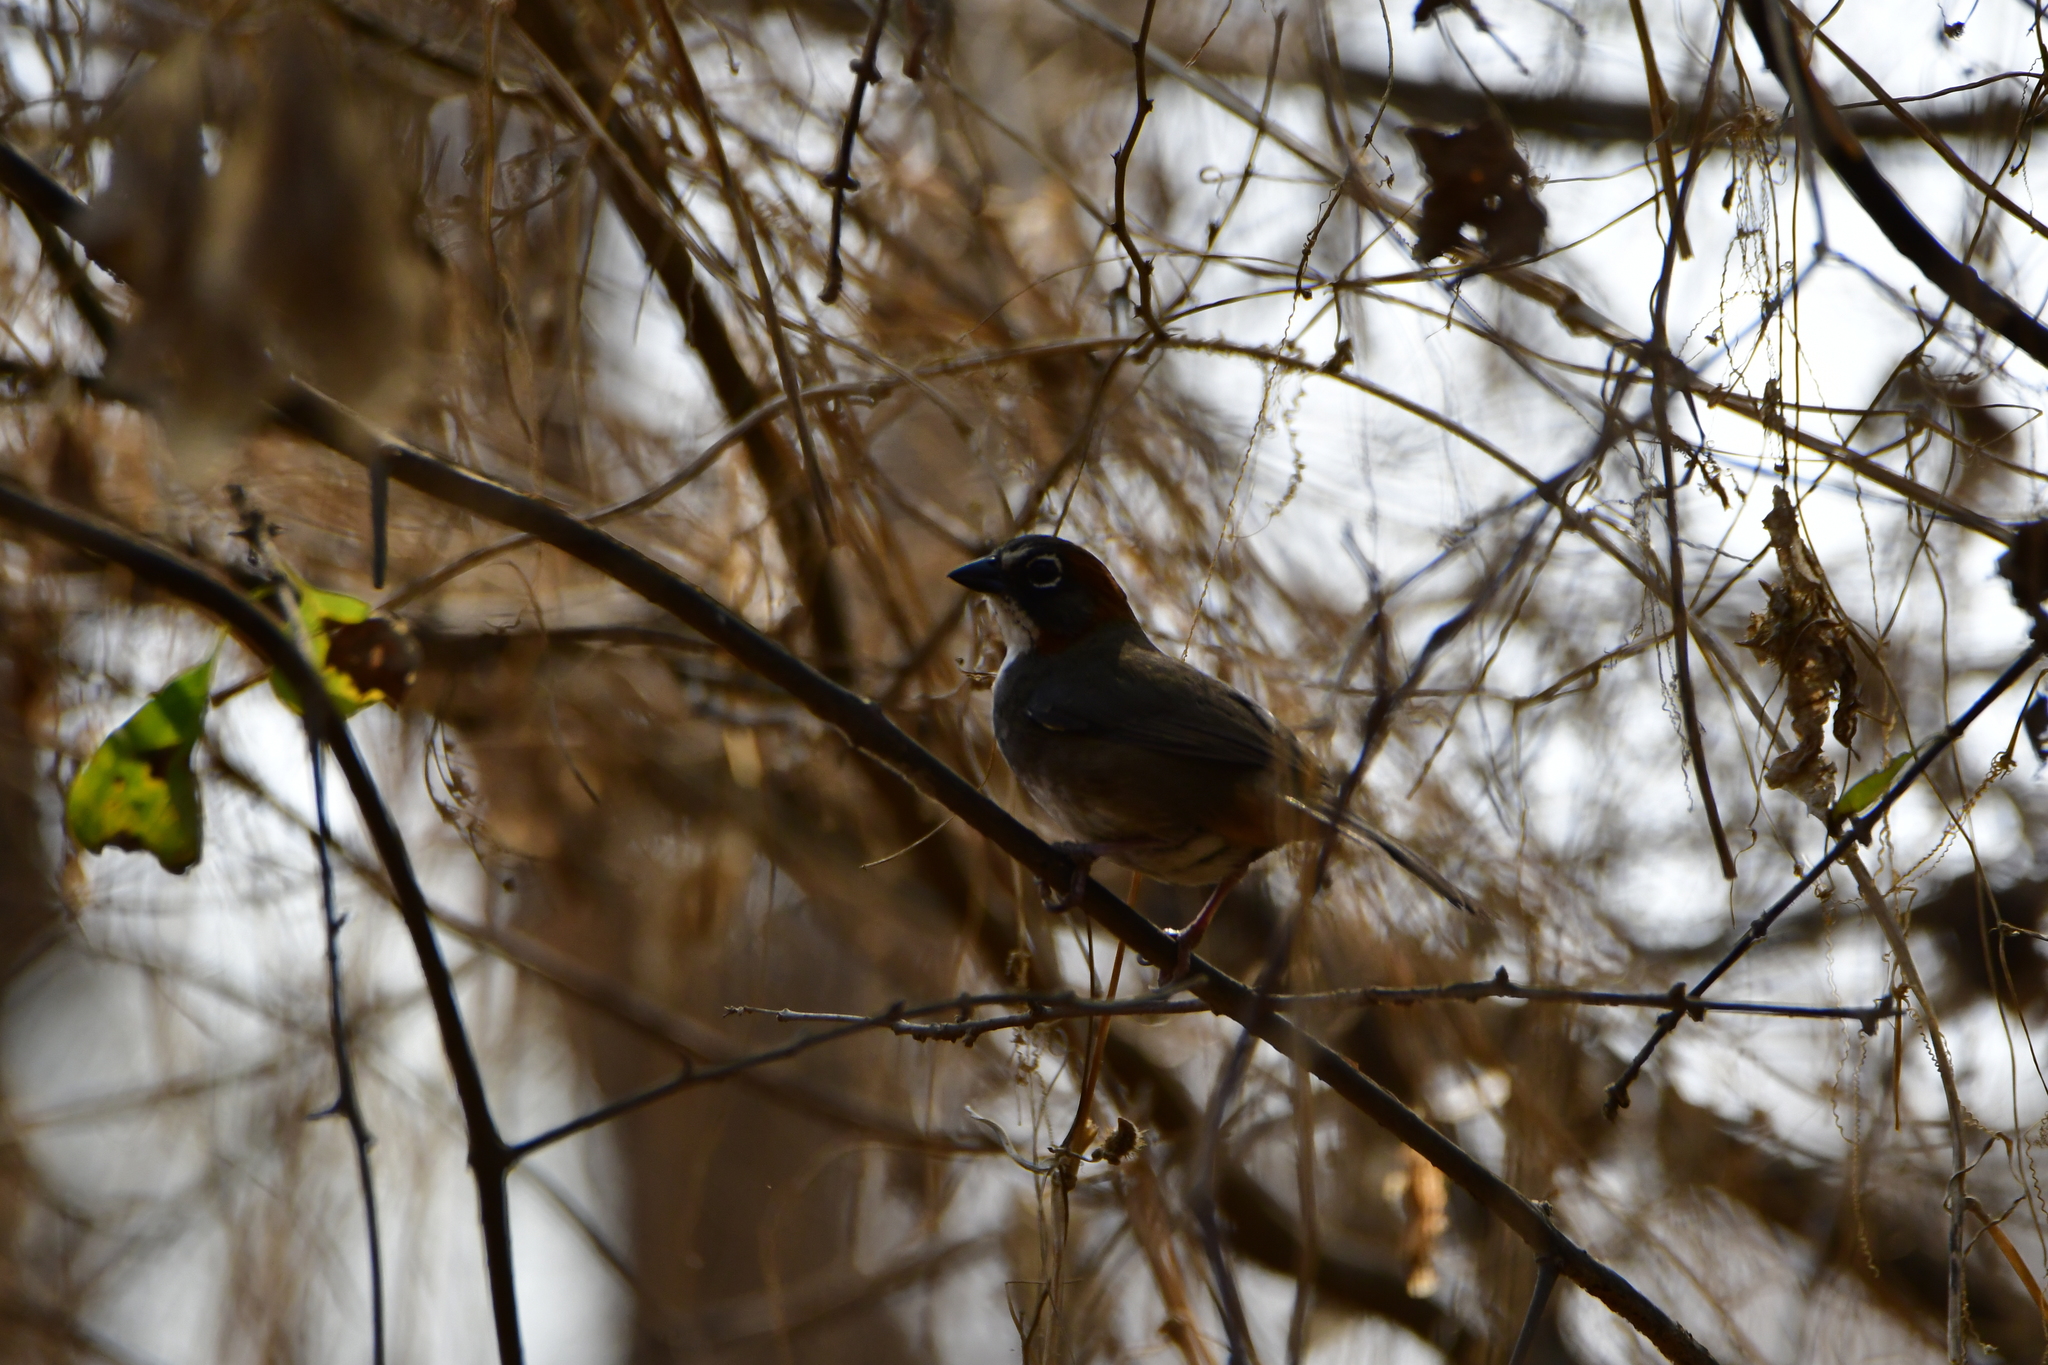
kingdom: Animalia
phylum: Chordata
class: Aves
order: Passeriformes
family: Passerellidae
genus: Melozone
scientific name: Melozone kieneri
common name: Rusty-crowned ground-sparrow
